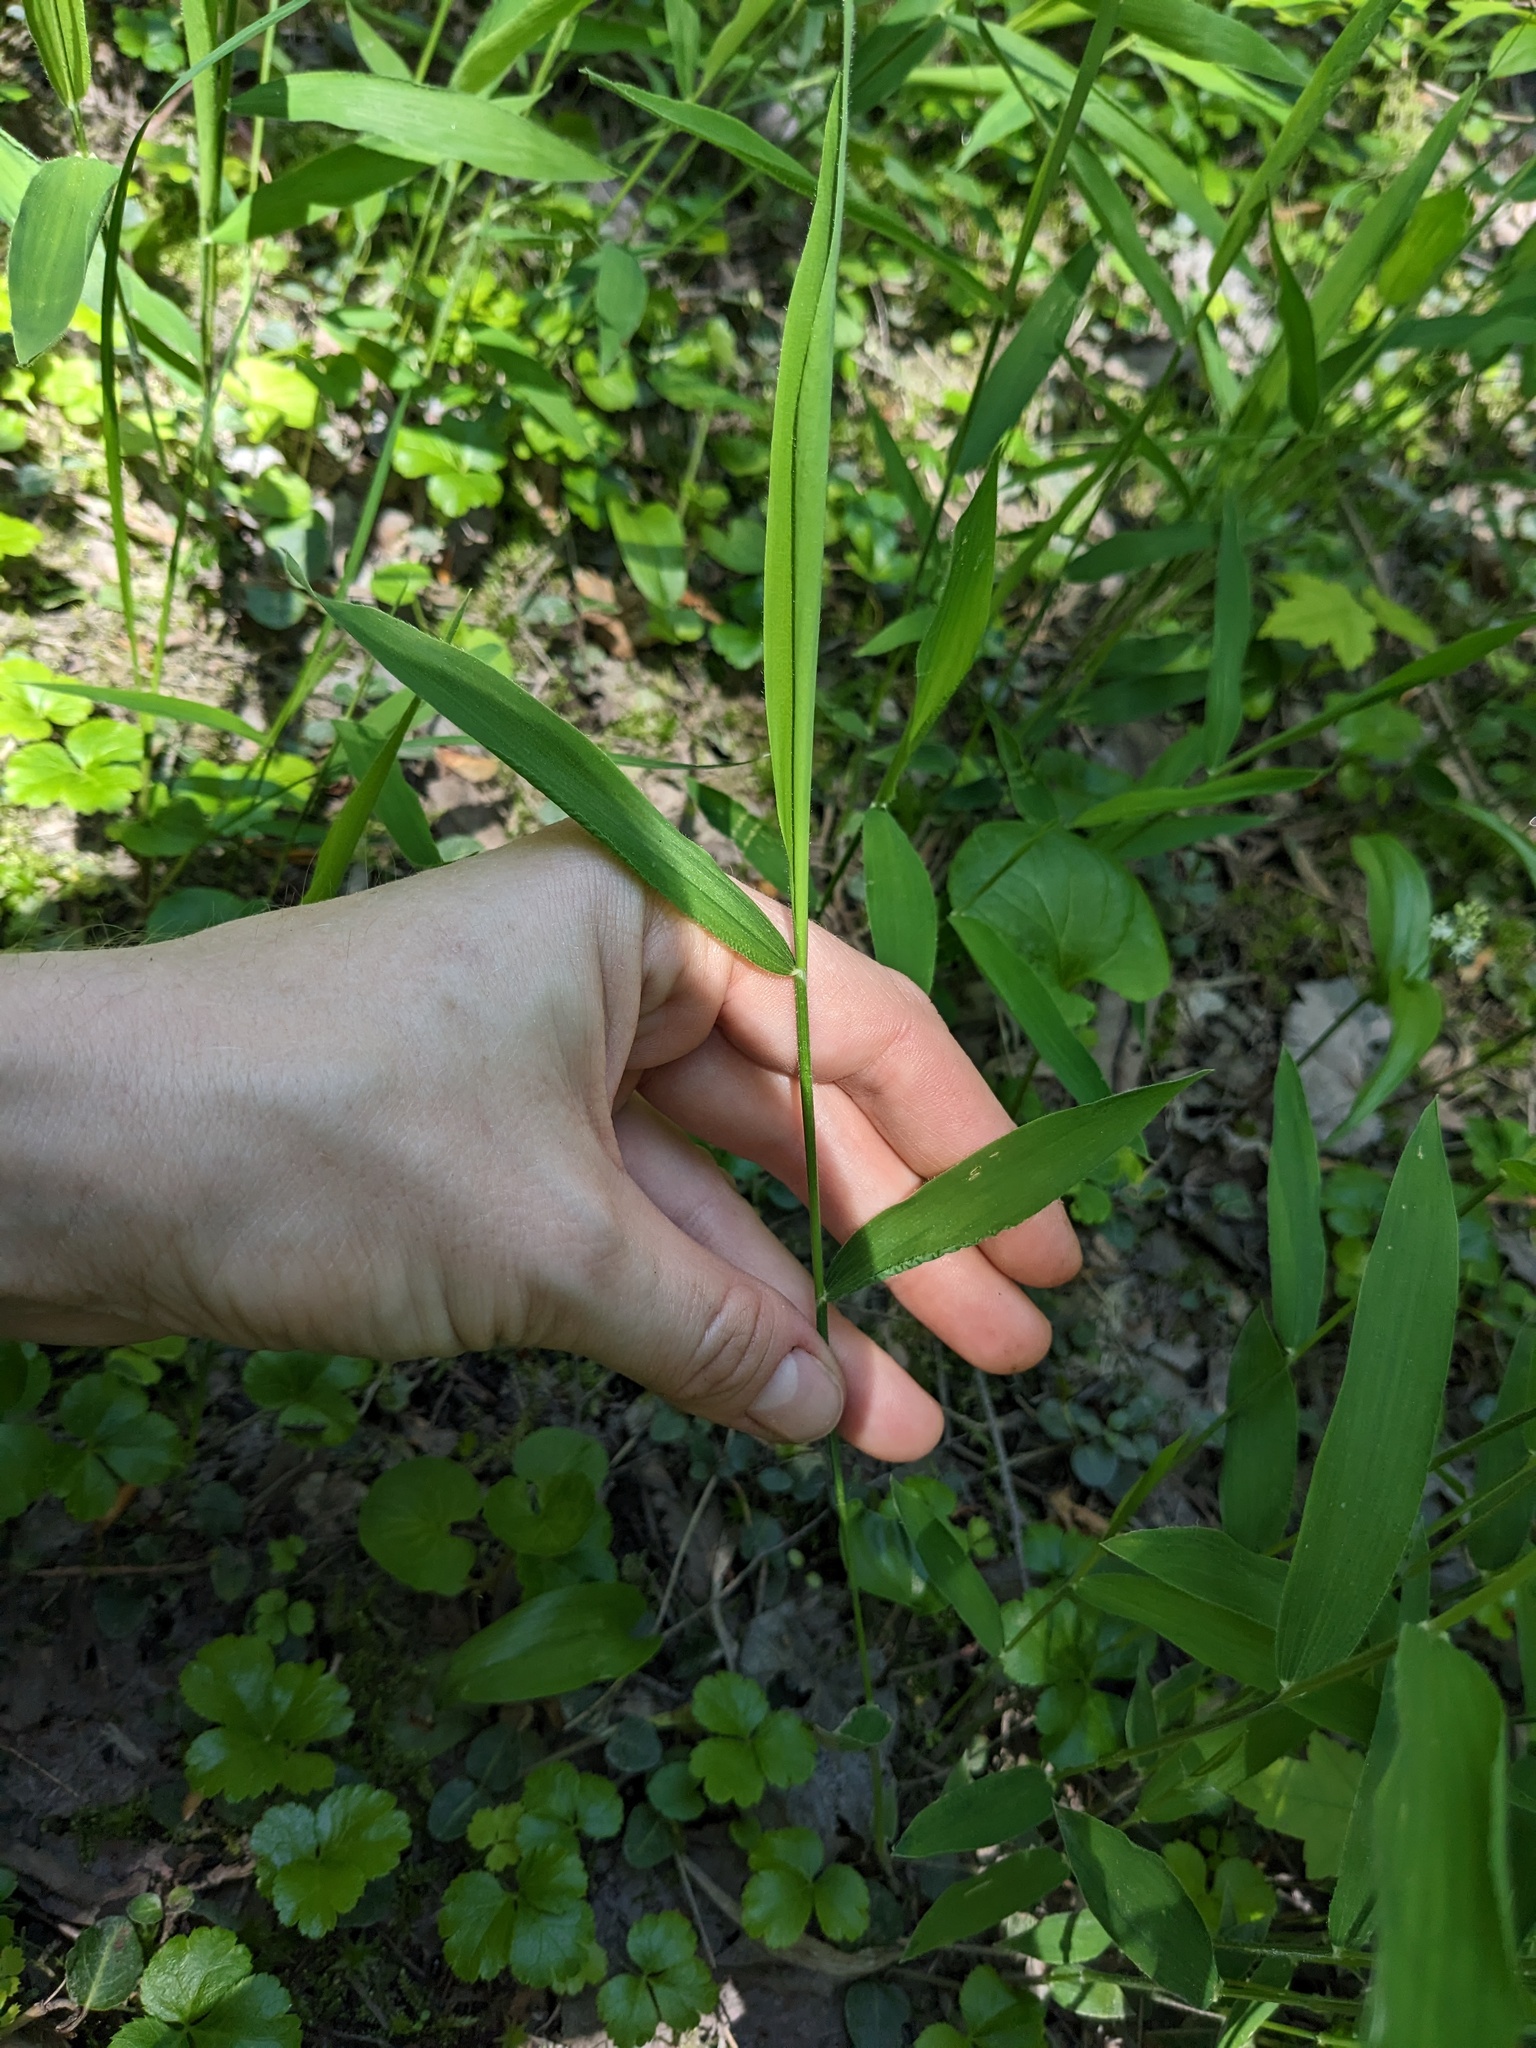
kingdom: Plantae
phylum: Tracheophyta
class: Liliopsida
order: Poales
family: Poaceae
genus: Dichanthelium
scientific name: Dichanthelium clandestinum
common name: Deer-tongue grass
